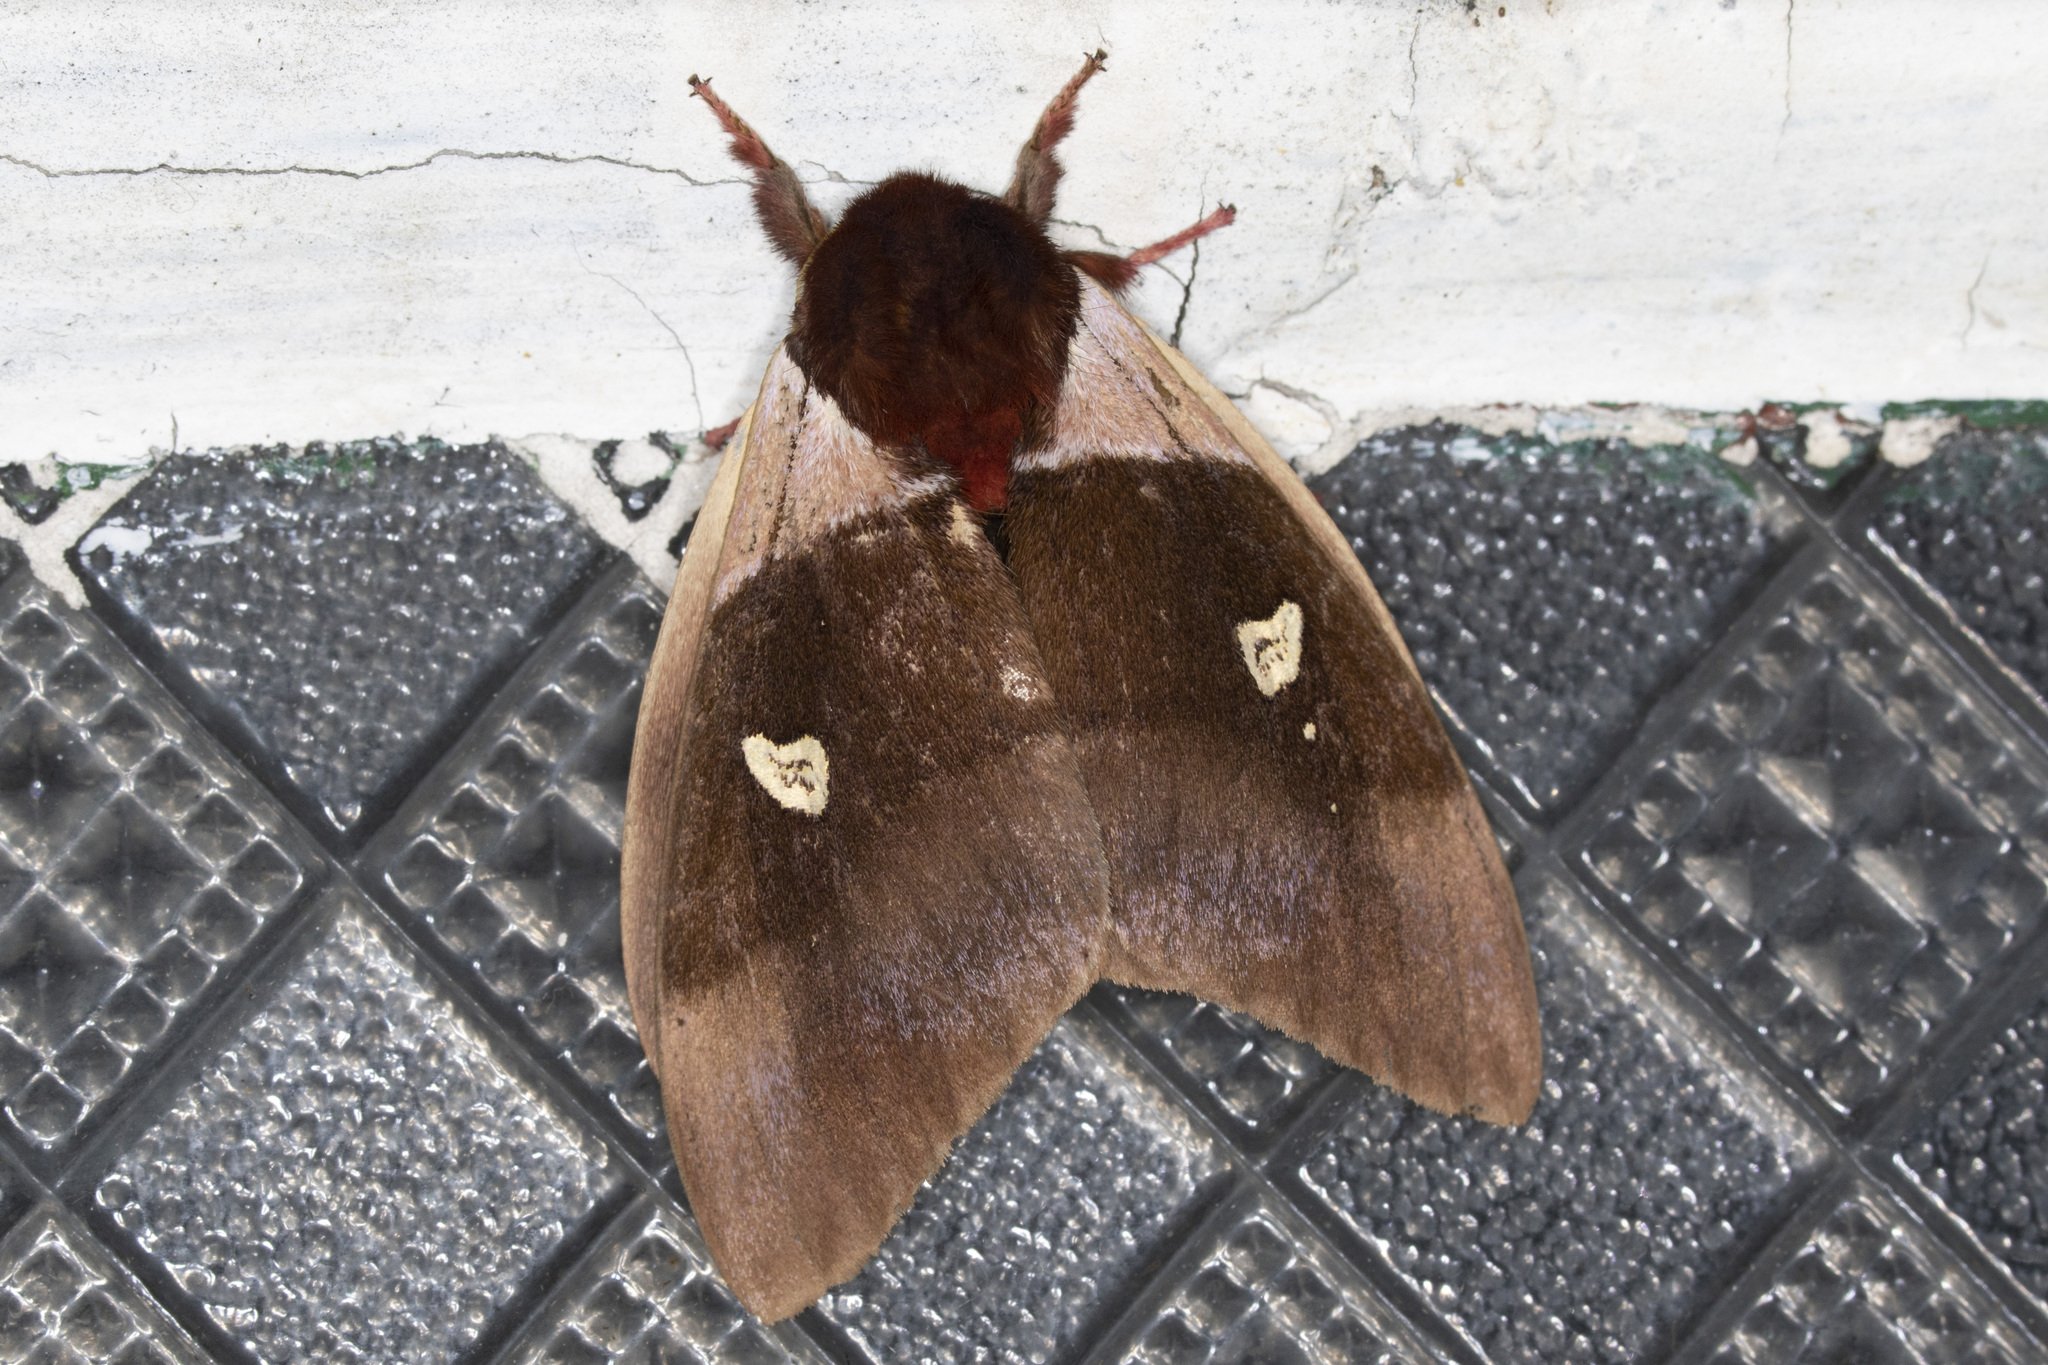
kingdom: Animalia
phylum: Arthropoda
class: Insecta
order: Lepidoptera
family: Saturniidae
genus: Dirphiopsis
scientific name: Dirphiopsis trisignata
